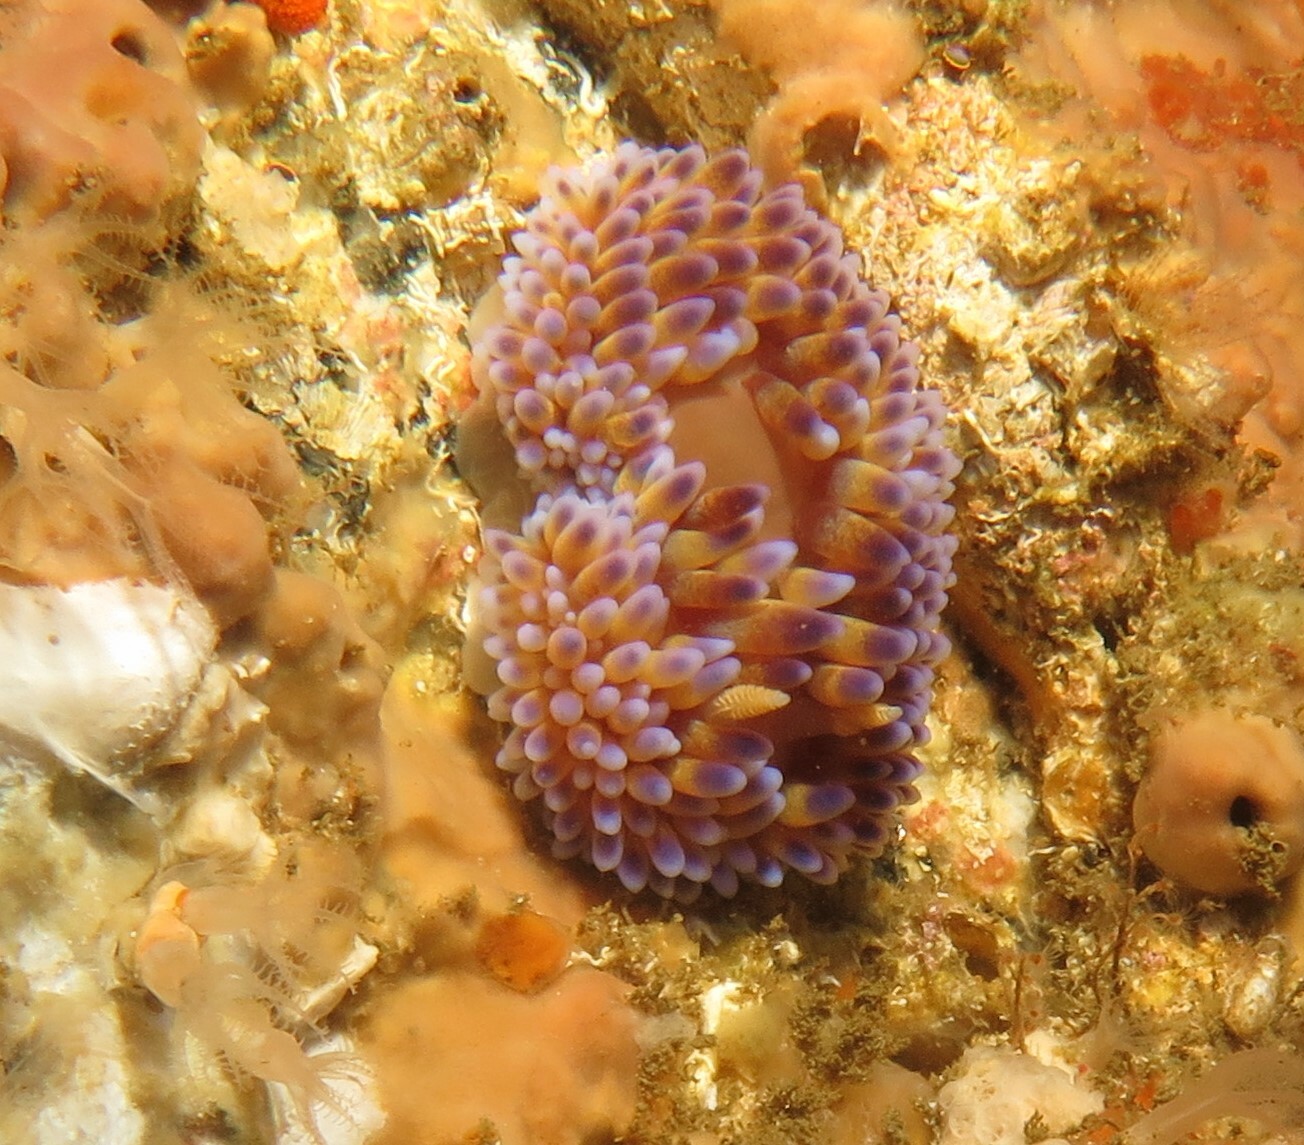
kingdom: Animalia
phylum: Mollusca
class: Gastropoda
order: Nudibranchia
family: Janolidae
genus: Bonisa
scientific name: Bonisa nakaza
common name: Gas flame nudibranch
